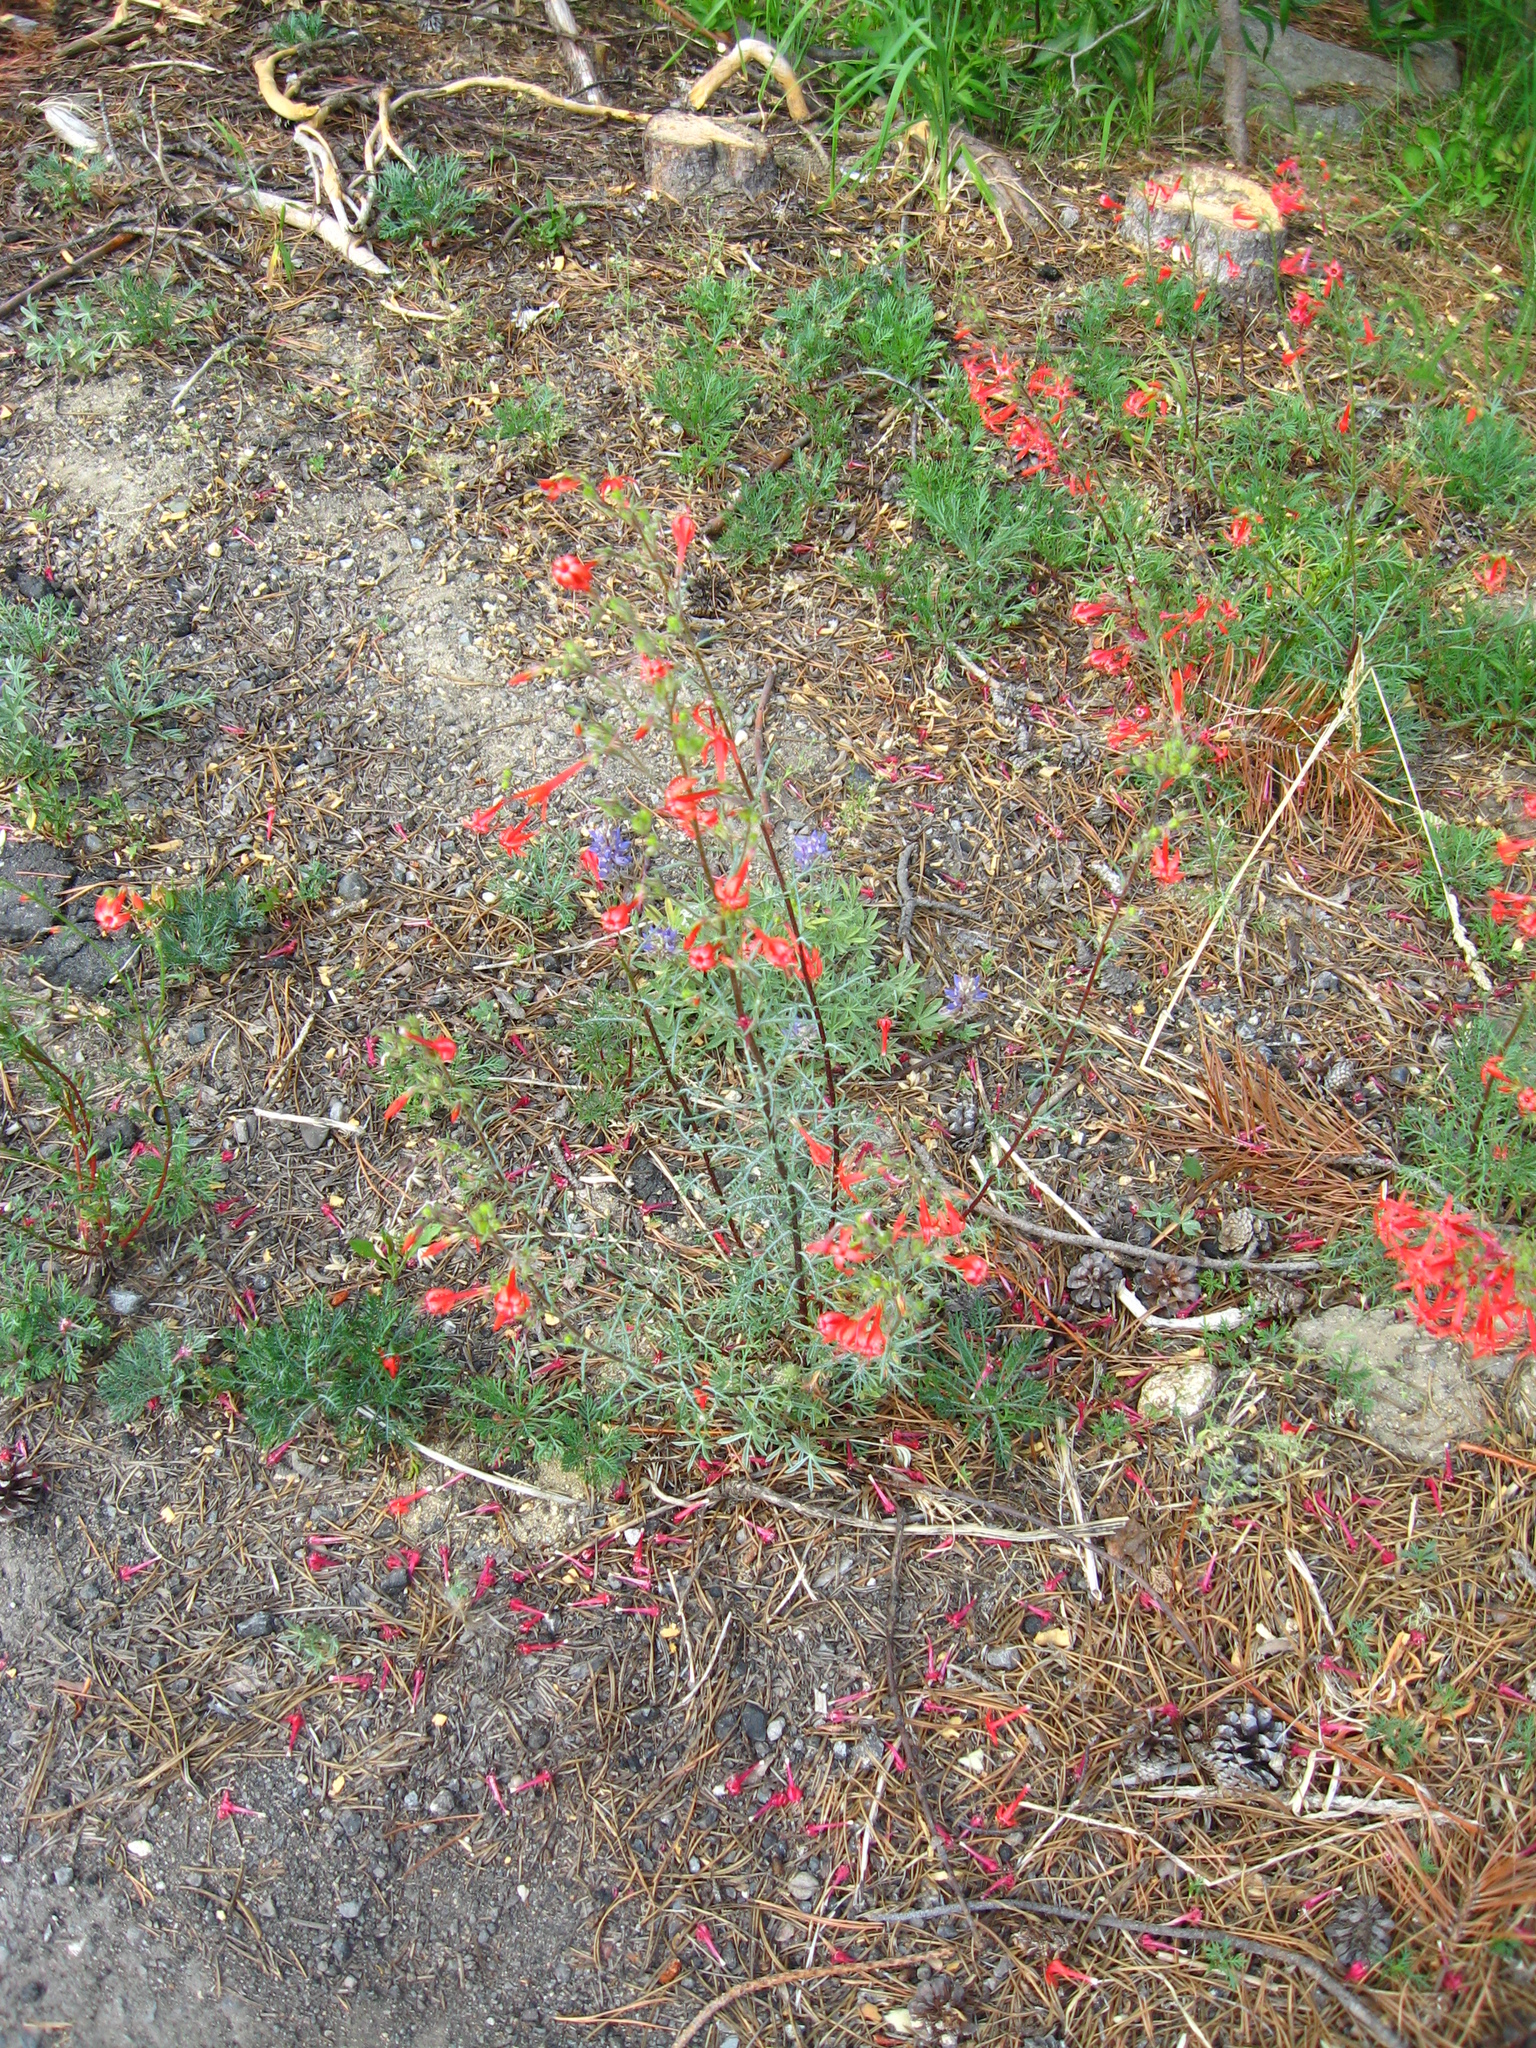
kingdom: Plantae
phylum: Tracheophyta
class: Magnoliopsida
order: Ericales
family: Polemoniaceae
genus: Ipomopsis
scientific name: Ipomopsis aggregata
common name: Scarlet gilia
